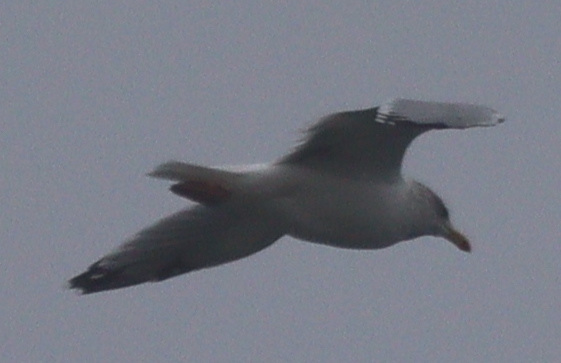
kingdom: Animalia
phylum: Chordata
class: Aves
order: Charadriiformes
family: Laridae
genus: Larus
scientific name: Larus argentatus
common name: Herring gull
